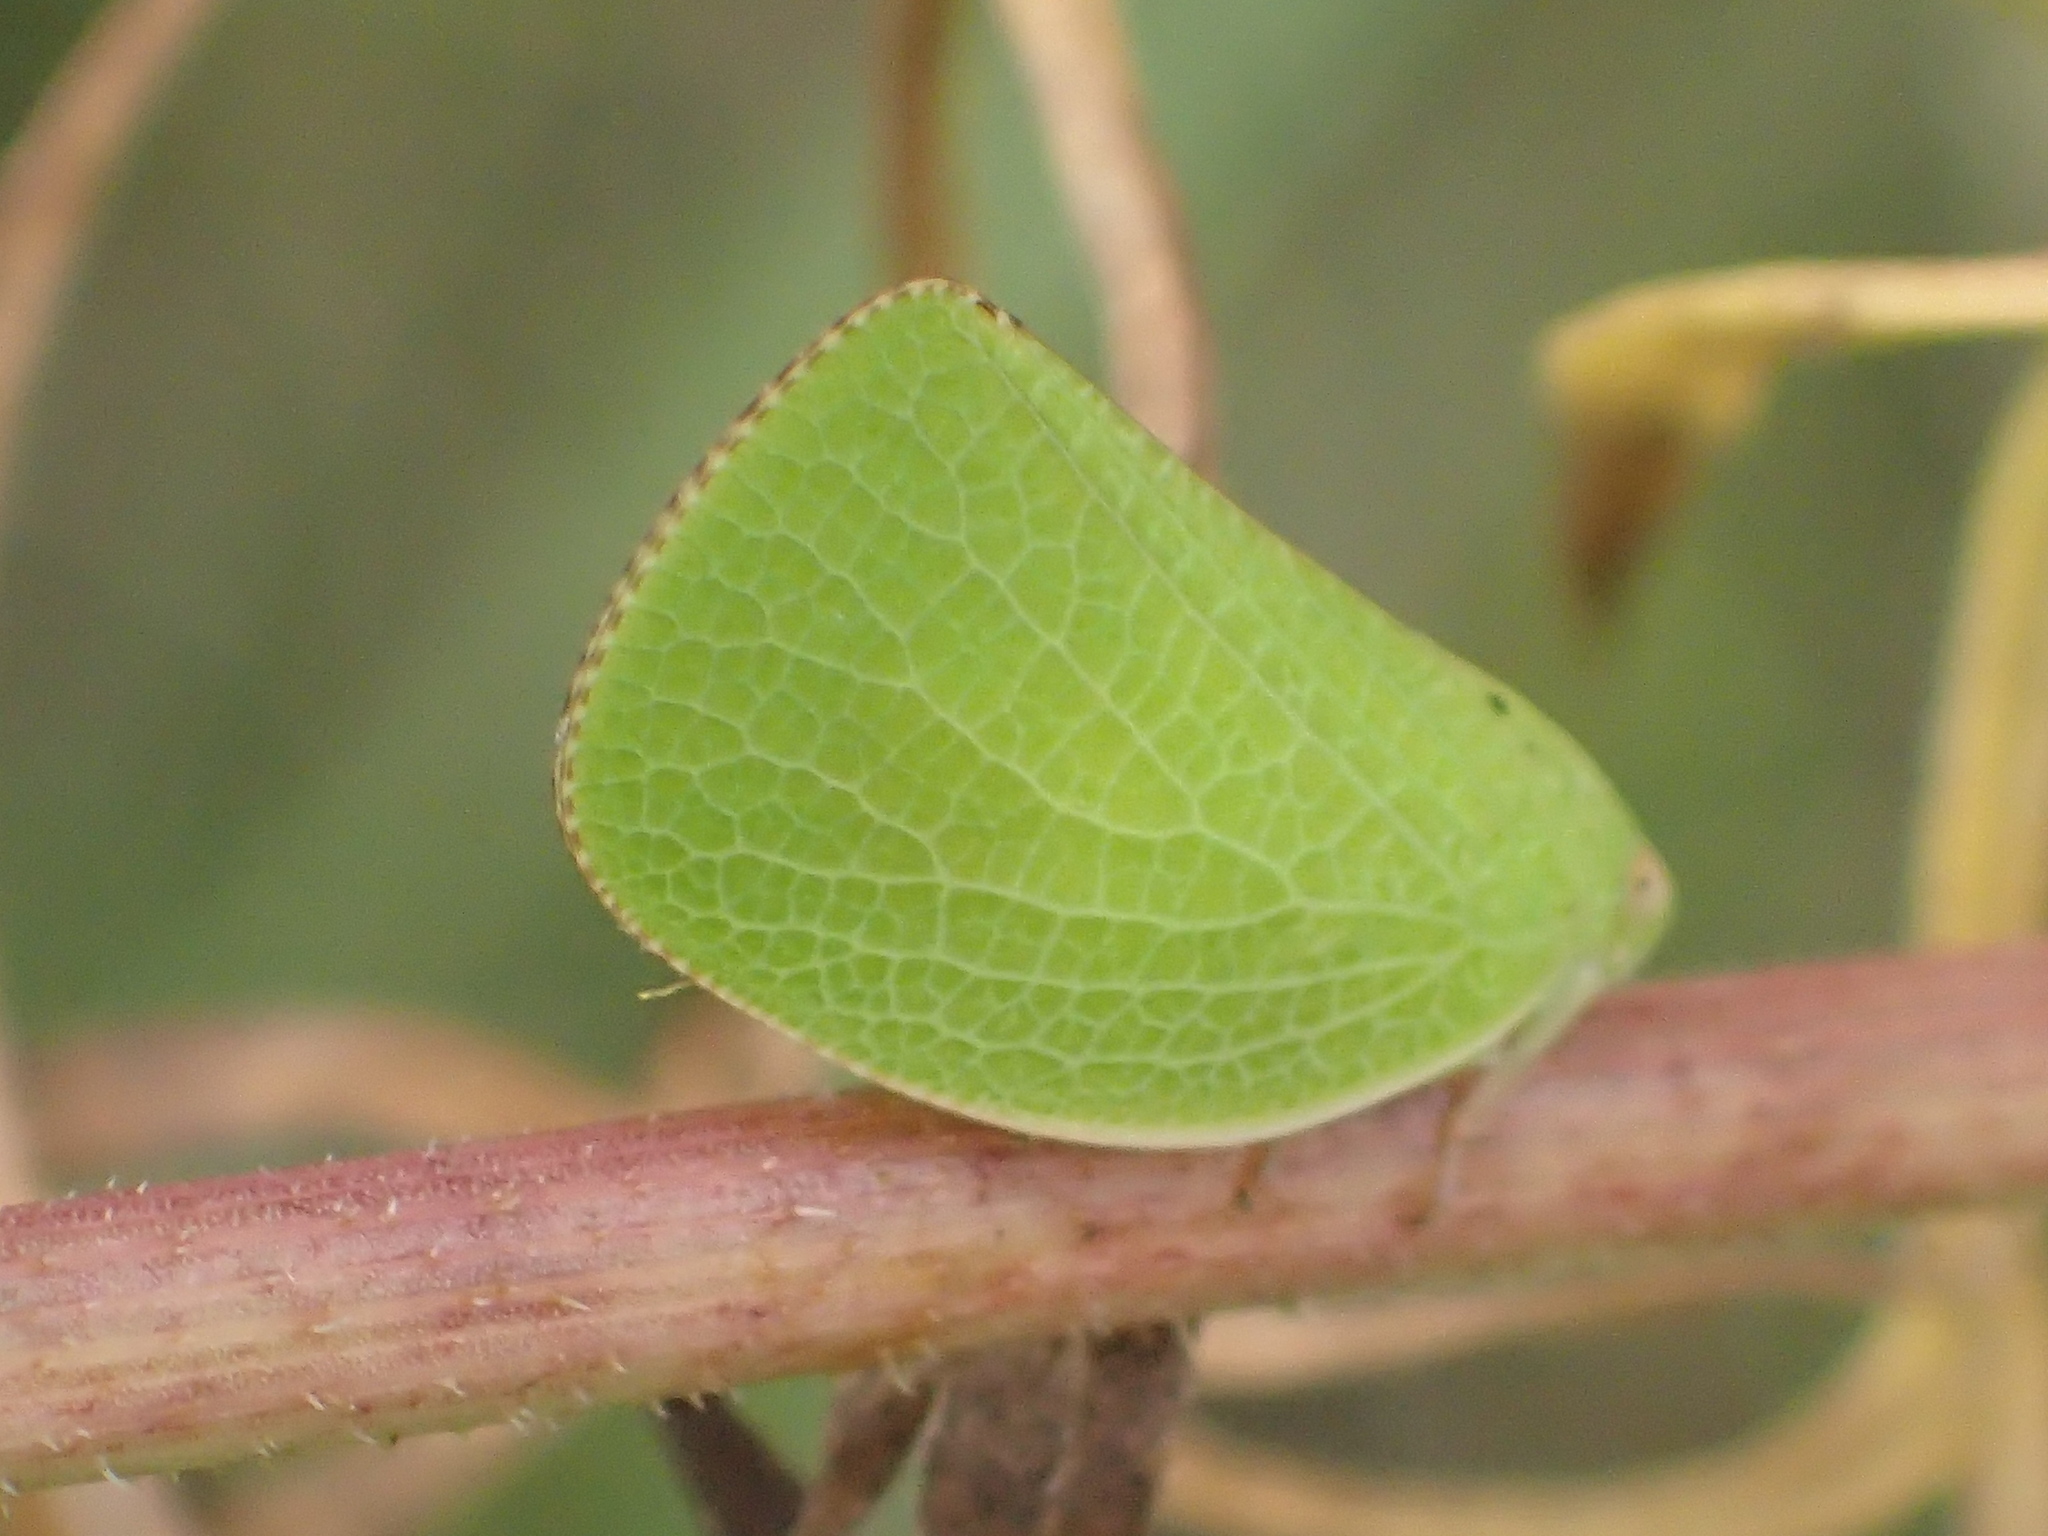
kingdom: Animalia
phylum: Arthropoda
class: Insecta
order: Hemiptera
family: Acanaloniidae
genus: Acanalonia
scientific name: Acanalonia conica
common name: Green cone-headed planthopper
